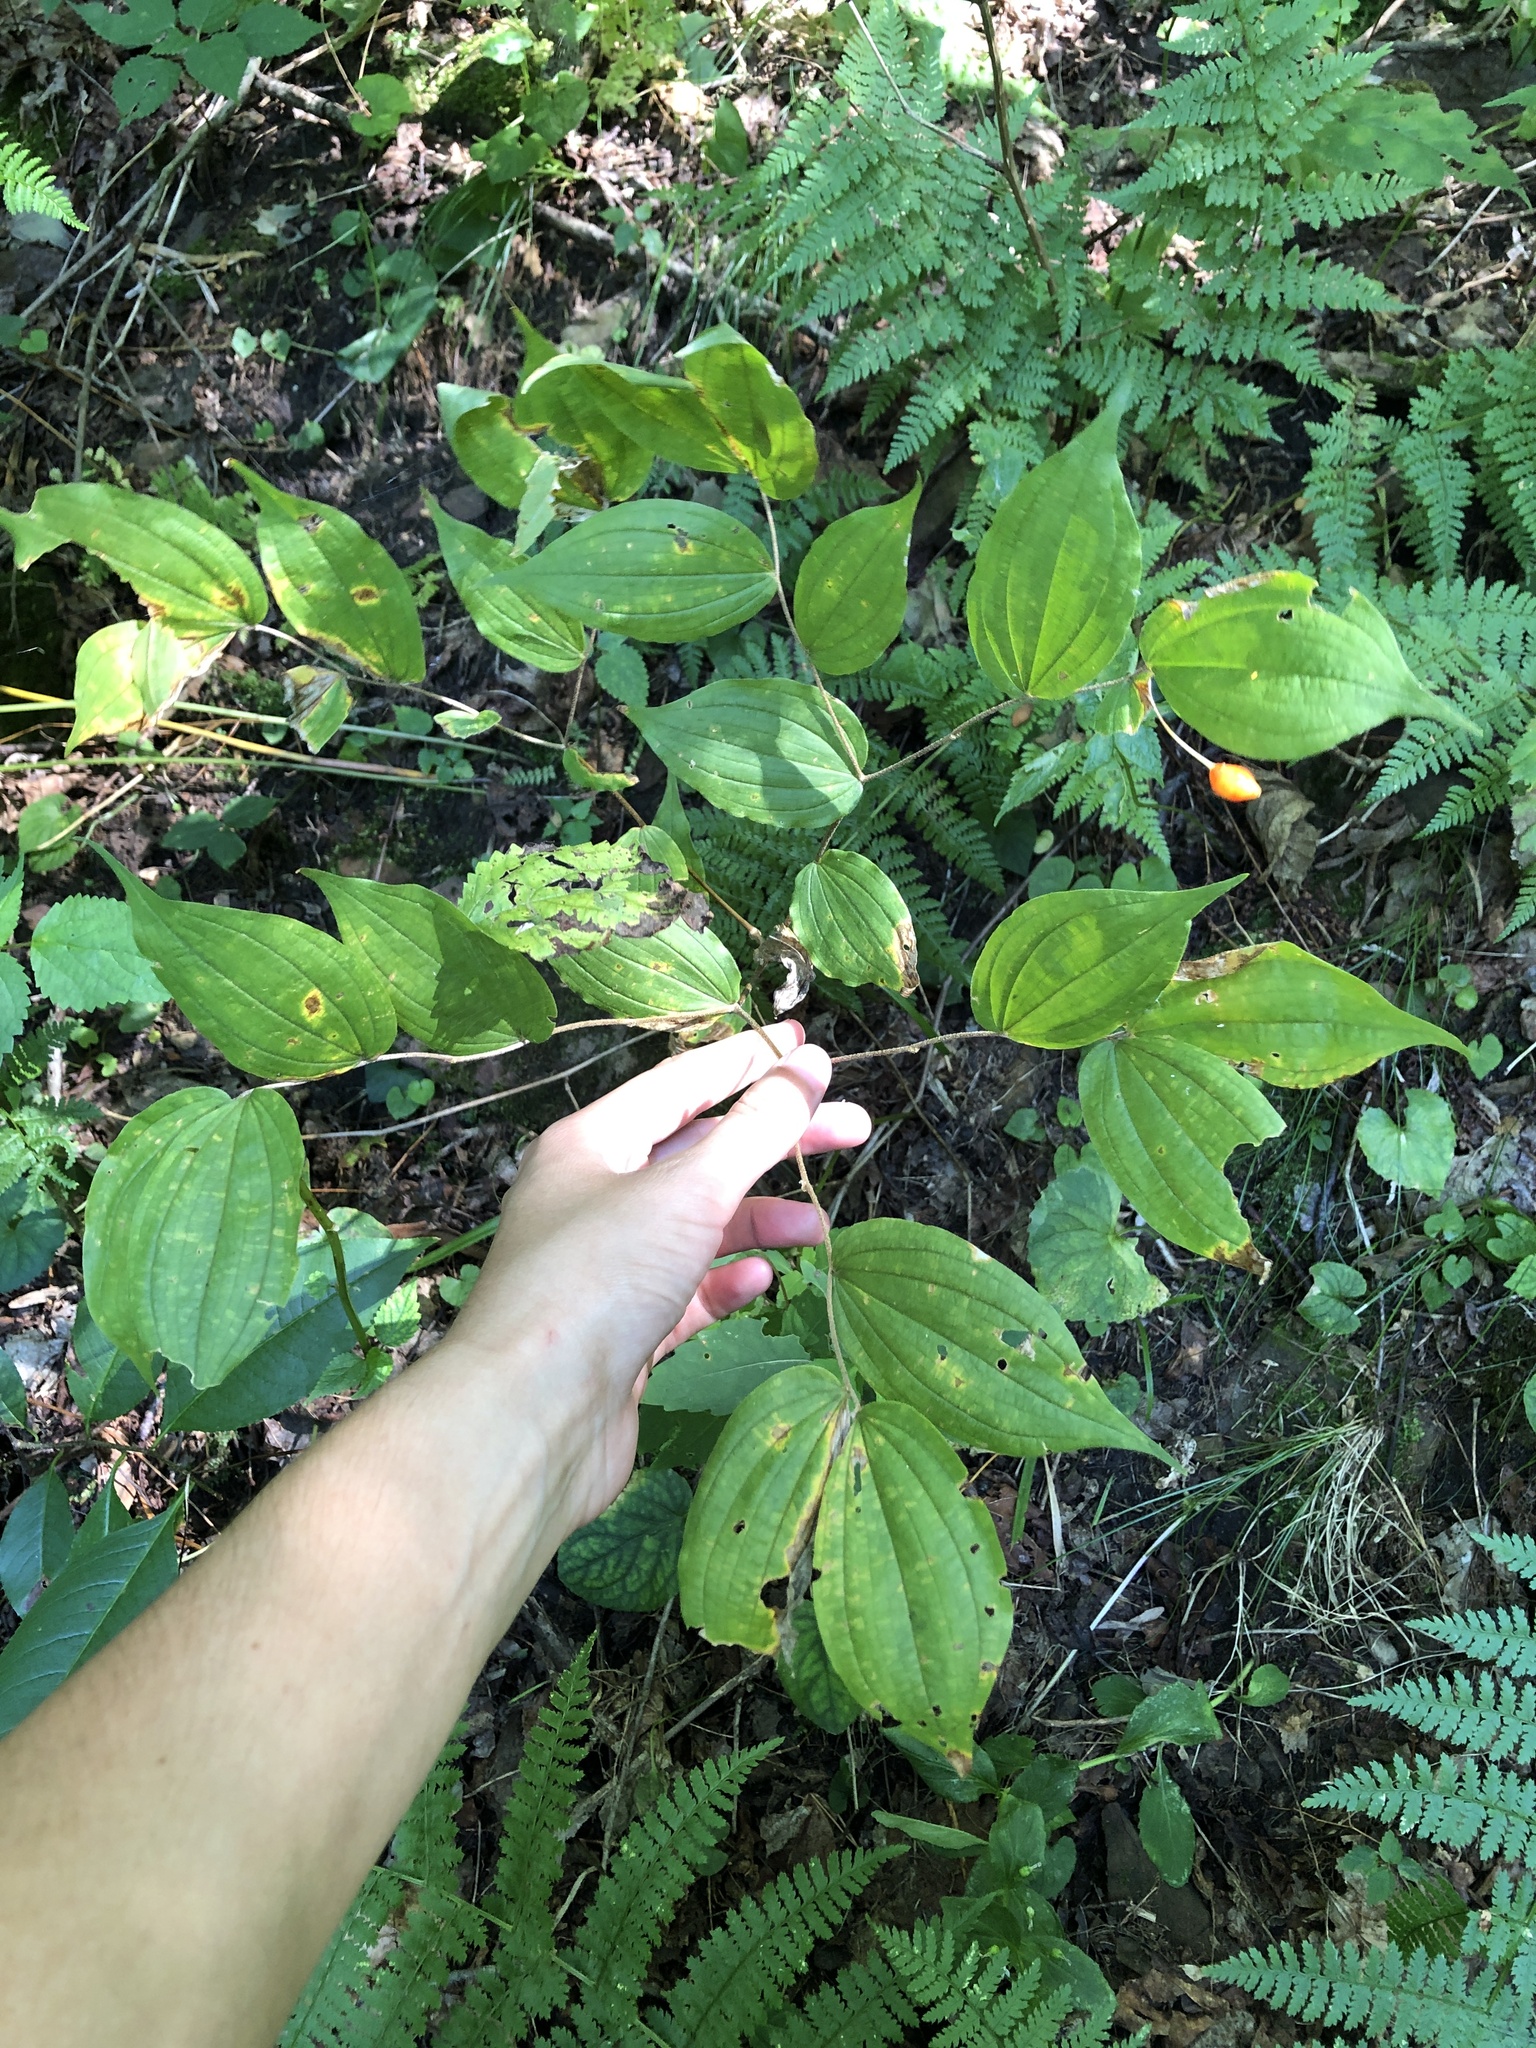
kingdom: Plantae
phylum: Tracheophyta
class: Liliopsida
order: Liliales
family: Liliaceae
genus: Prosartes
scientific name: Prosartes lanuginosa
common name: Hairy mandarin
